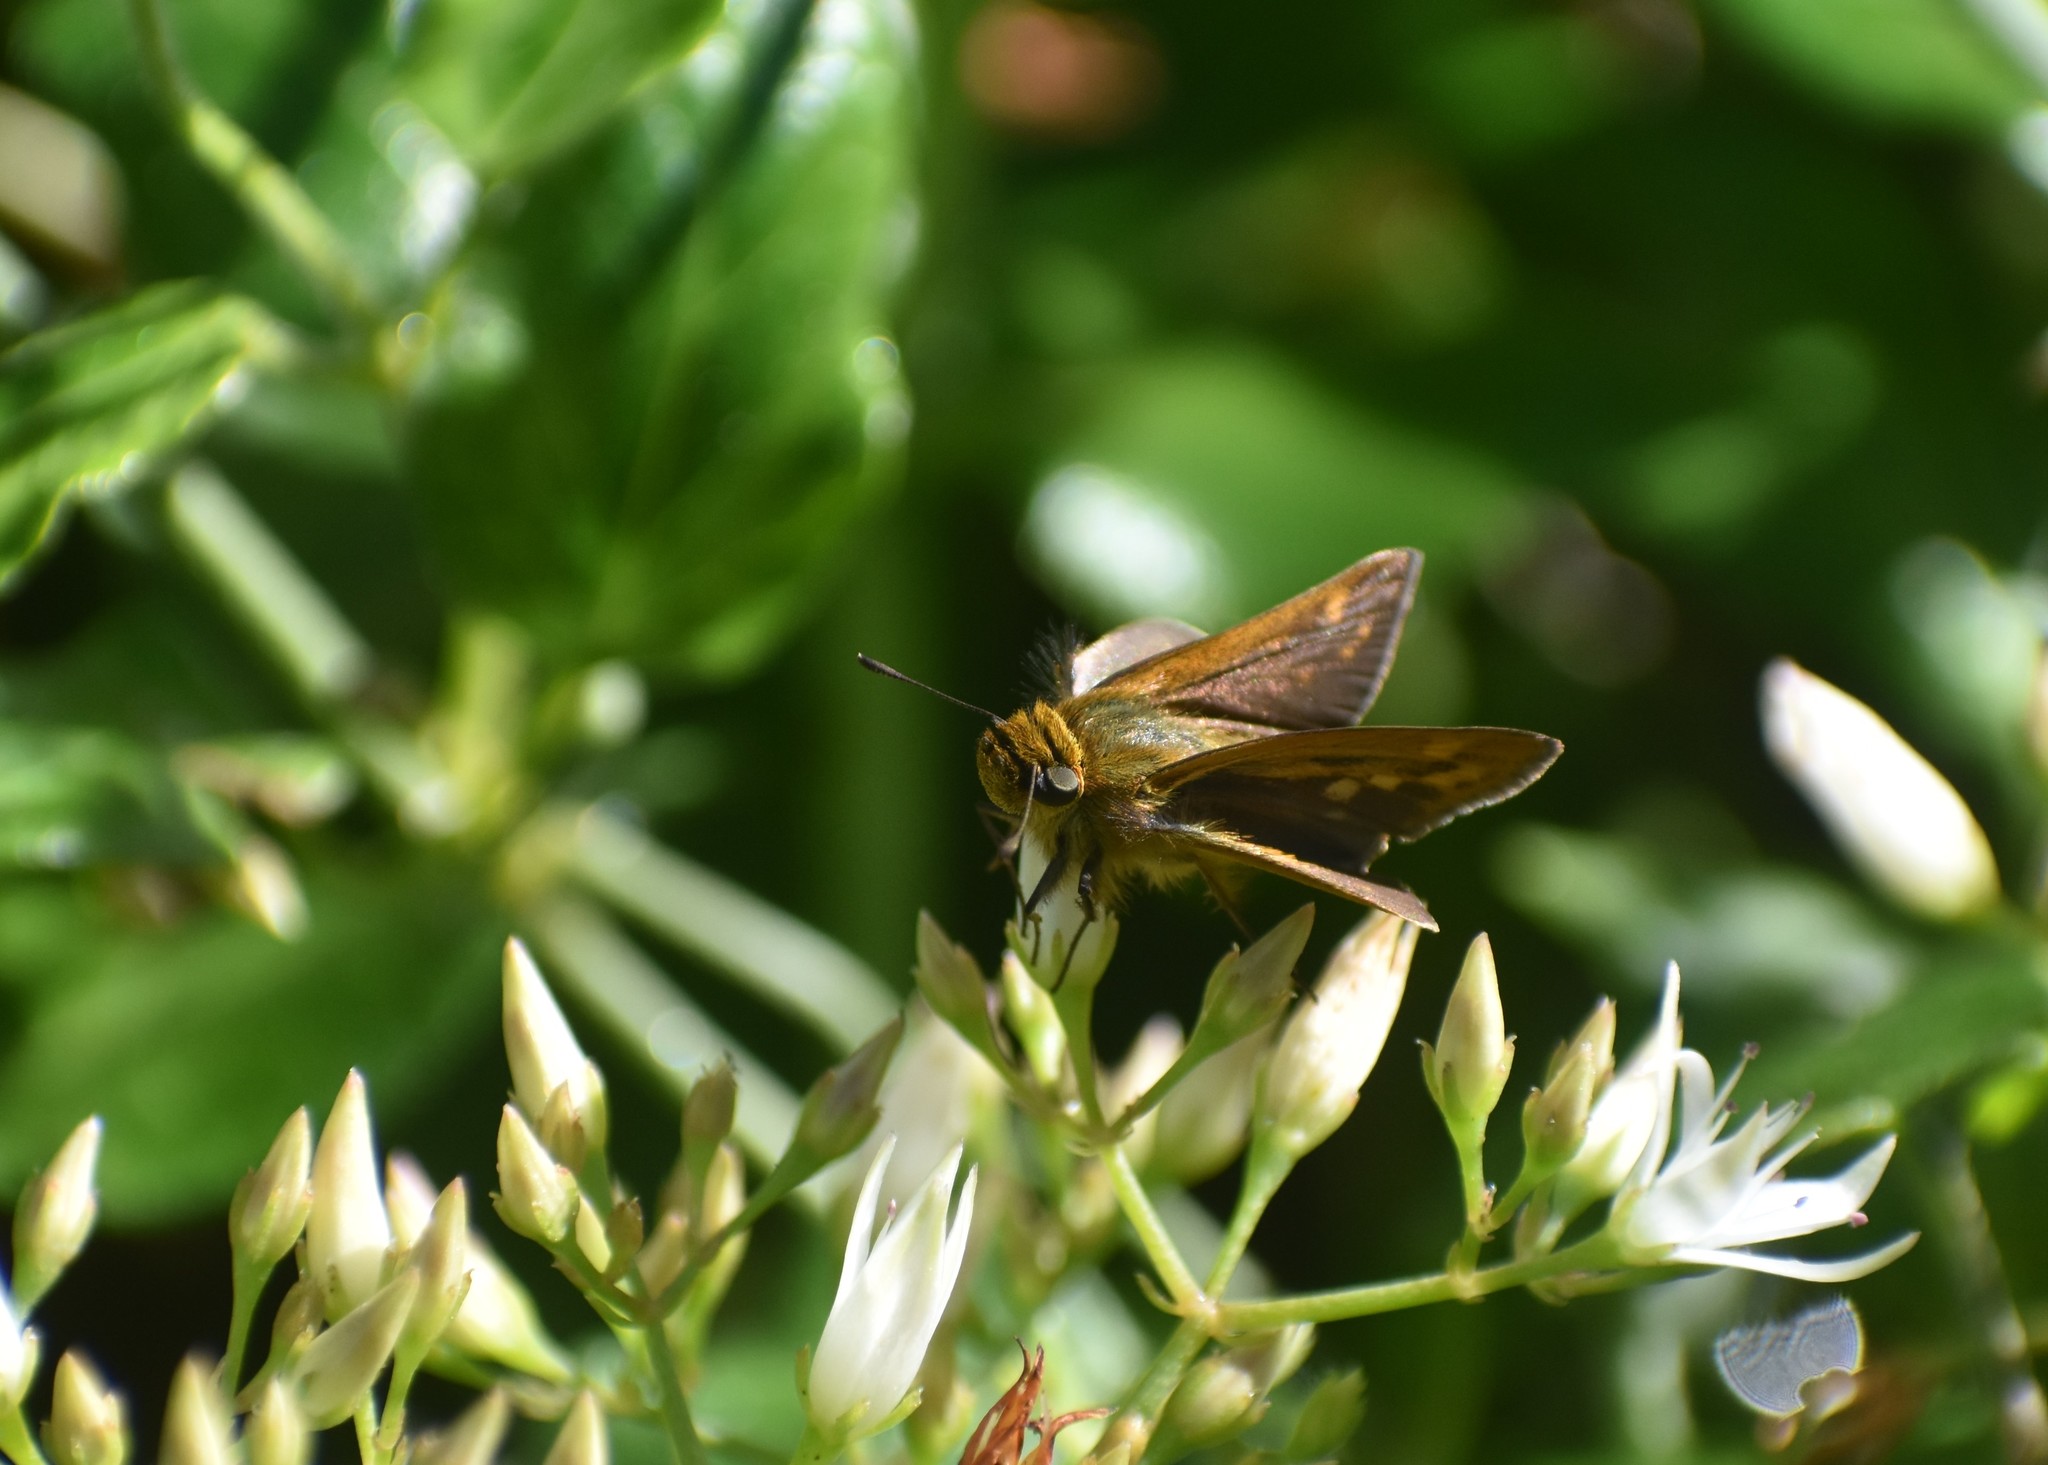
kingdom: Animalia
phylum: Arthropoda
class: Insecta
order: Lepidoptera
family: Hesperiidae
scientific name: Hesperiidae
